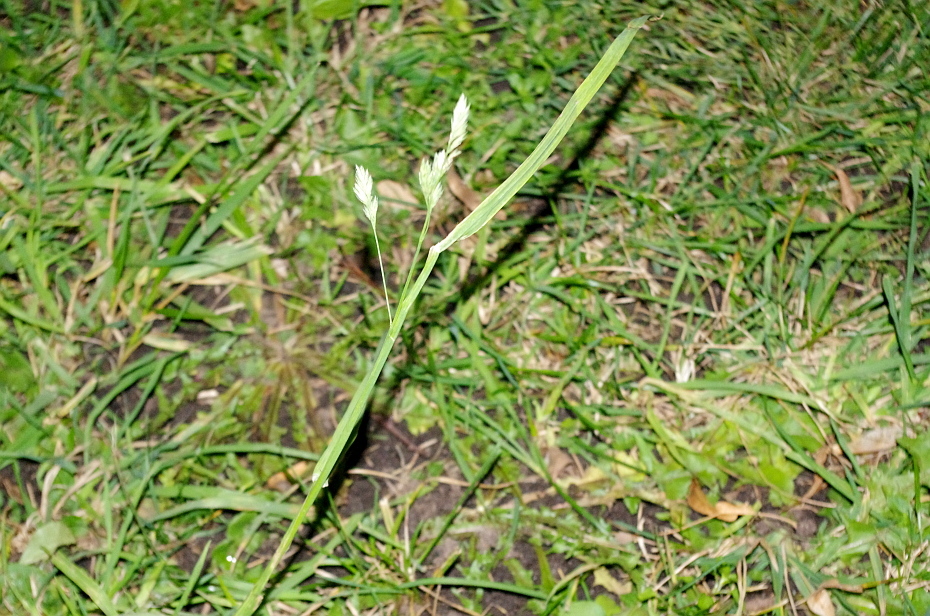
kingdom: Plantae
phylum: Tracheophyta
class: Liliopsida
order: Poales
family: Poaceae
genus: Dactylis
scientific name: Dactylis glomerata
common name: Orchardgrass
